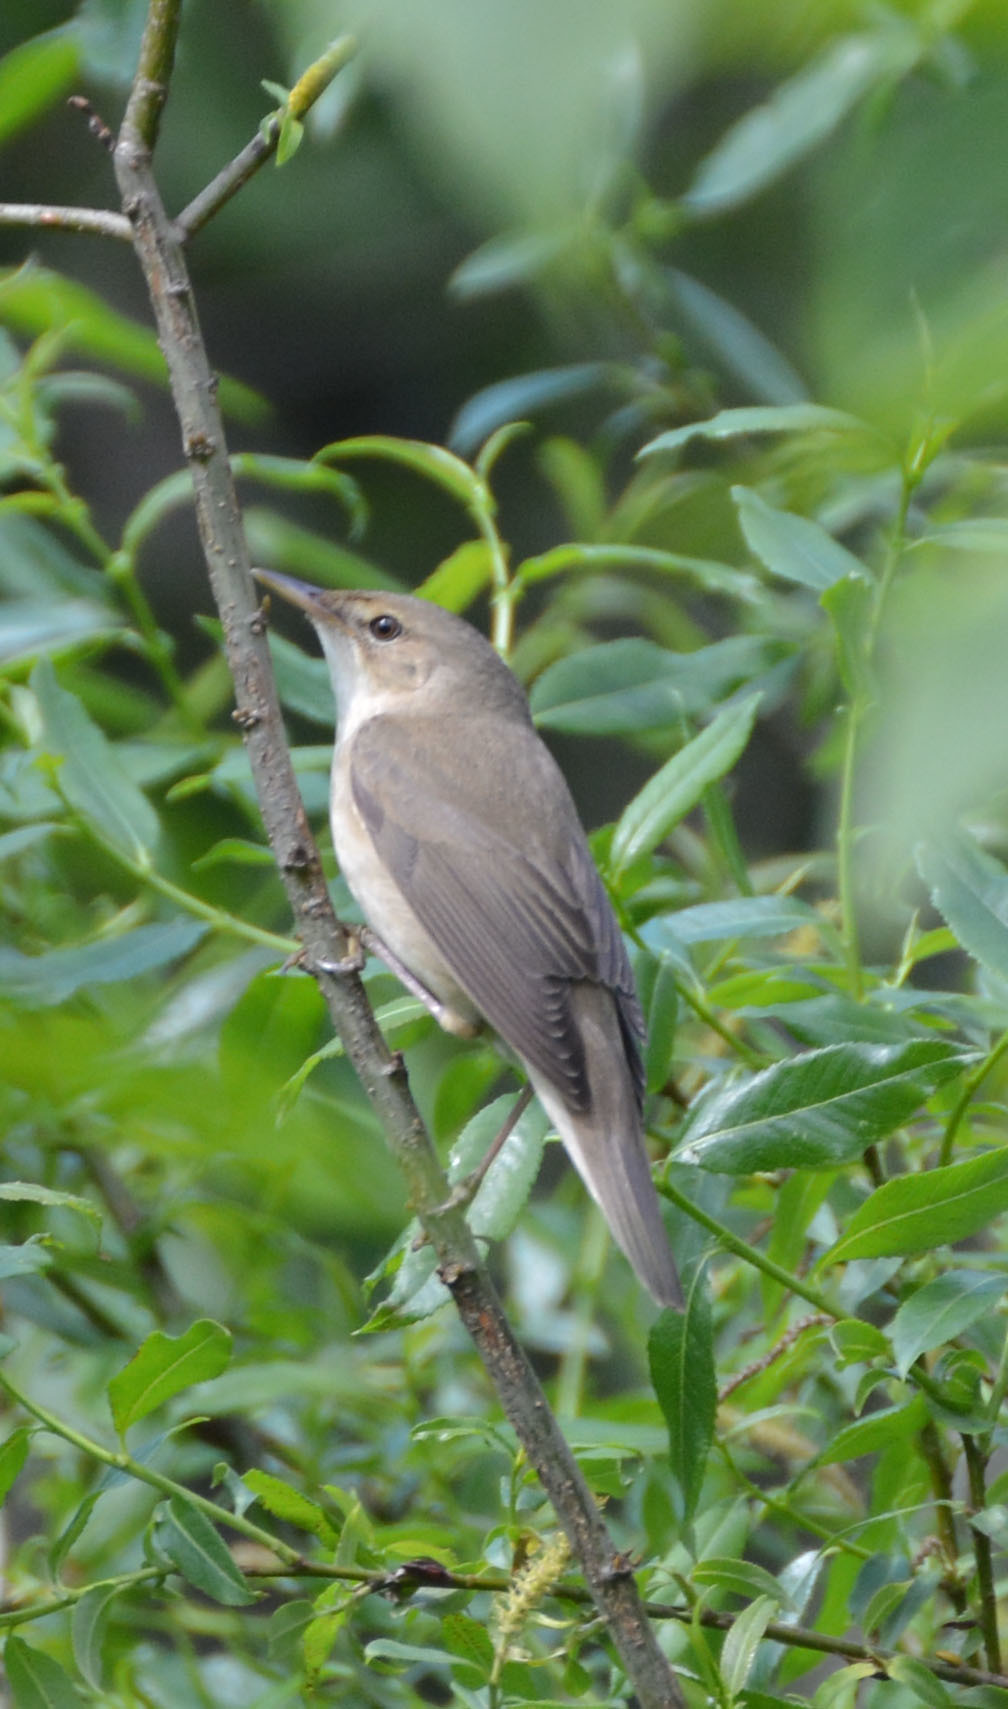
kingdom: Animalia
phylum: Chordata
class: Aves
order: Passeriformes
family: Acrocephalidae
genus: Acrocephalus
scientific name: Acrocephalus palustris
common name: Marsh warbler
